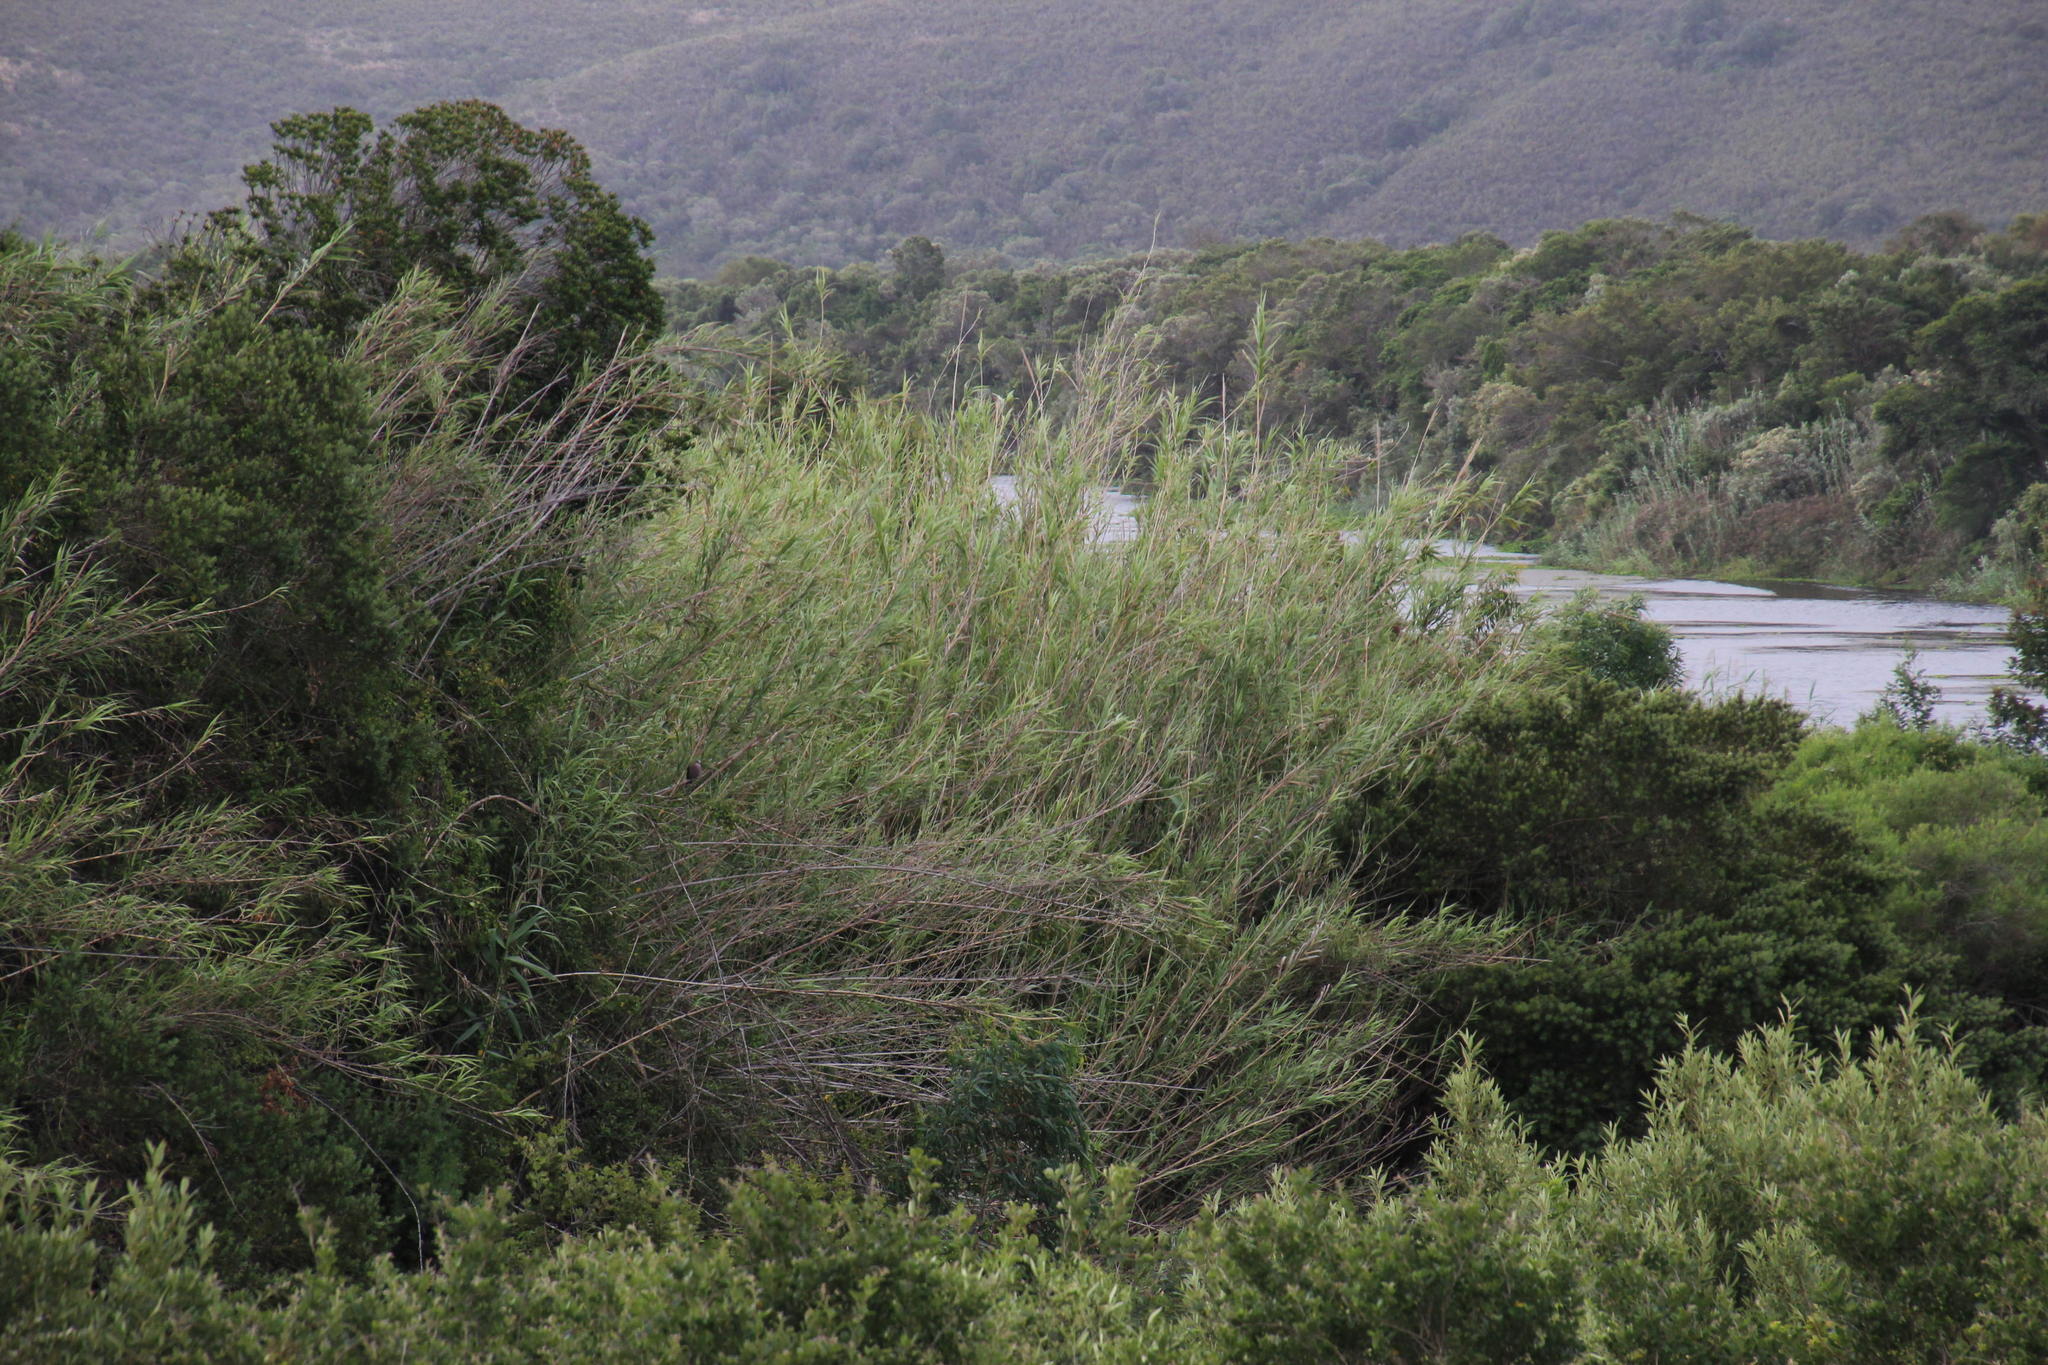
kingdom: Plantae
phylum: Tracheophyta
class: Liliopsida
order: Poales
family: Poaceae
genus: Arundo
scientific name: Arundo donax
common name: Giant reed
